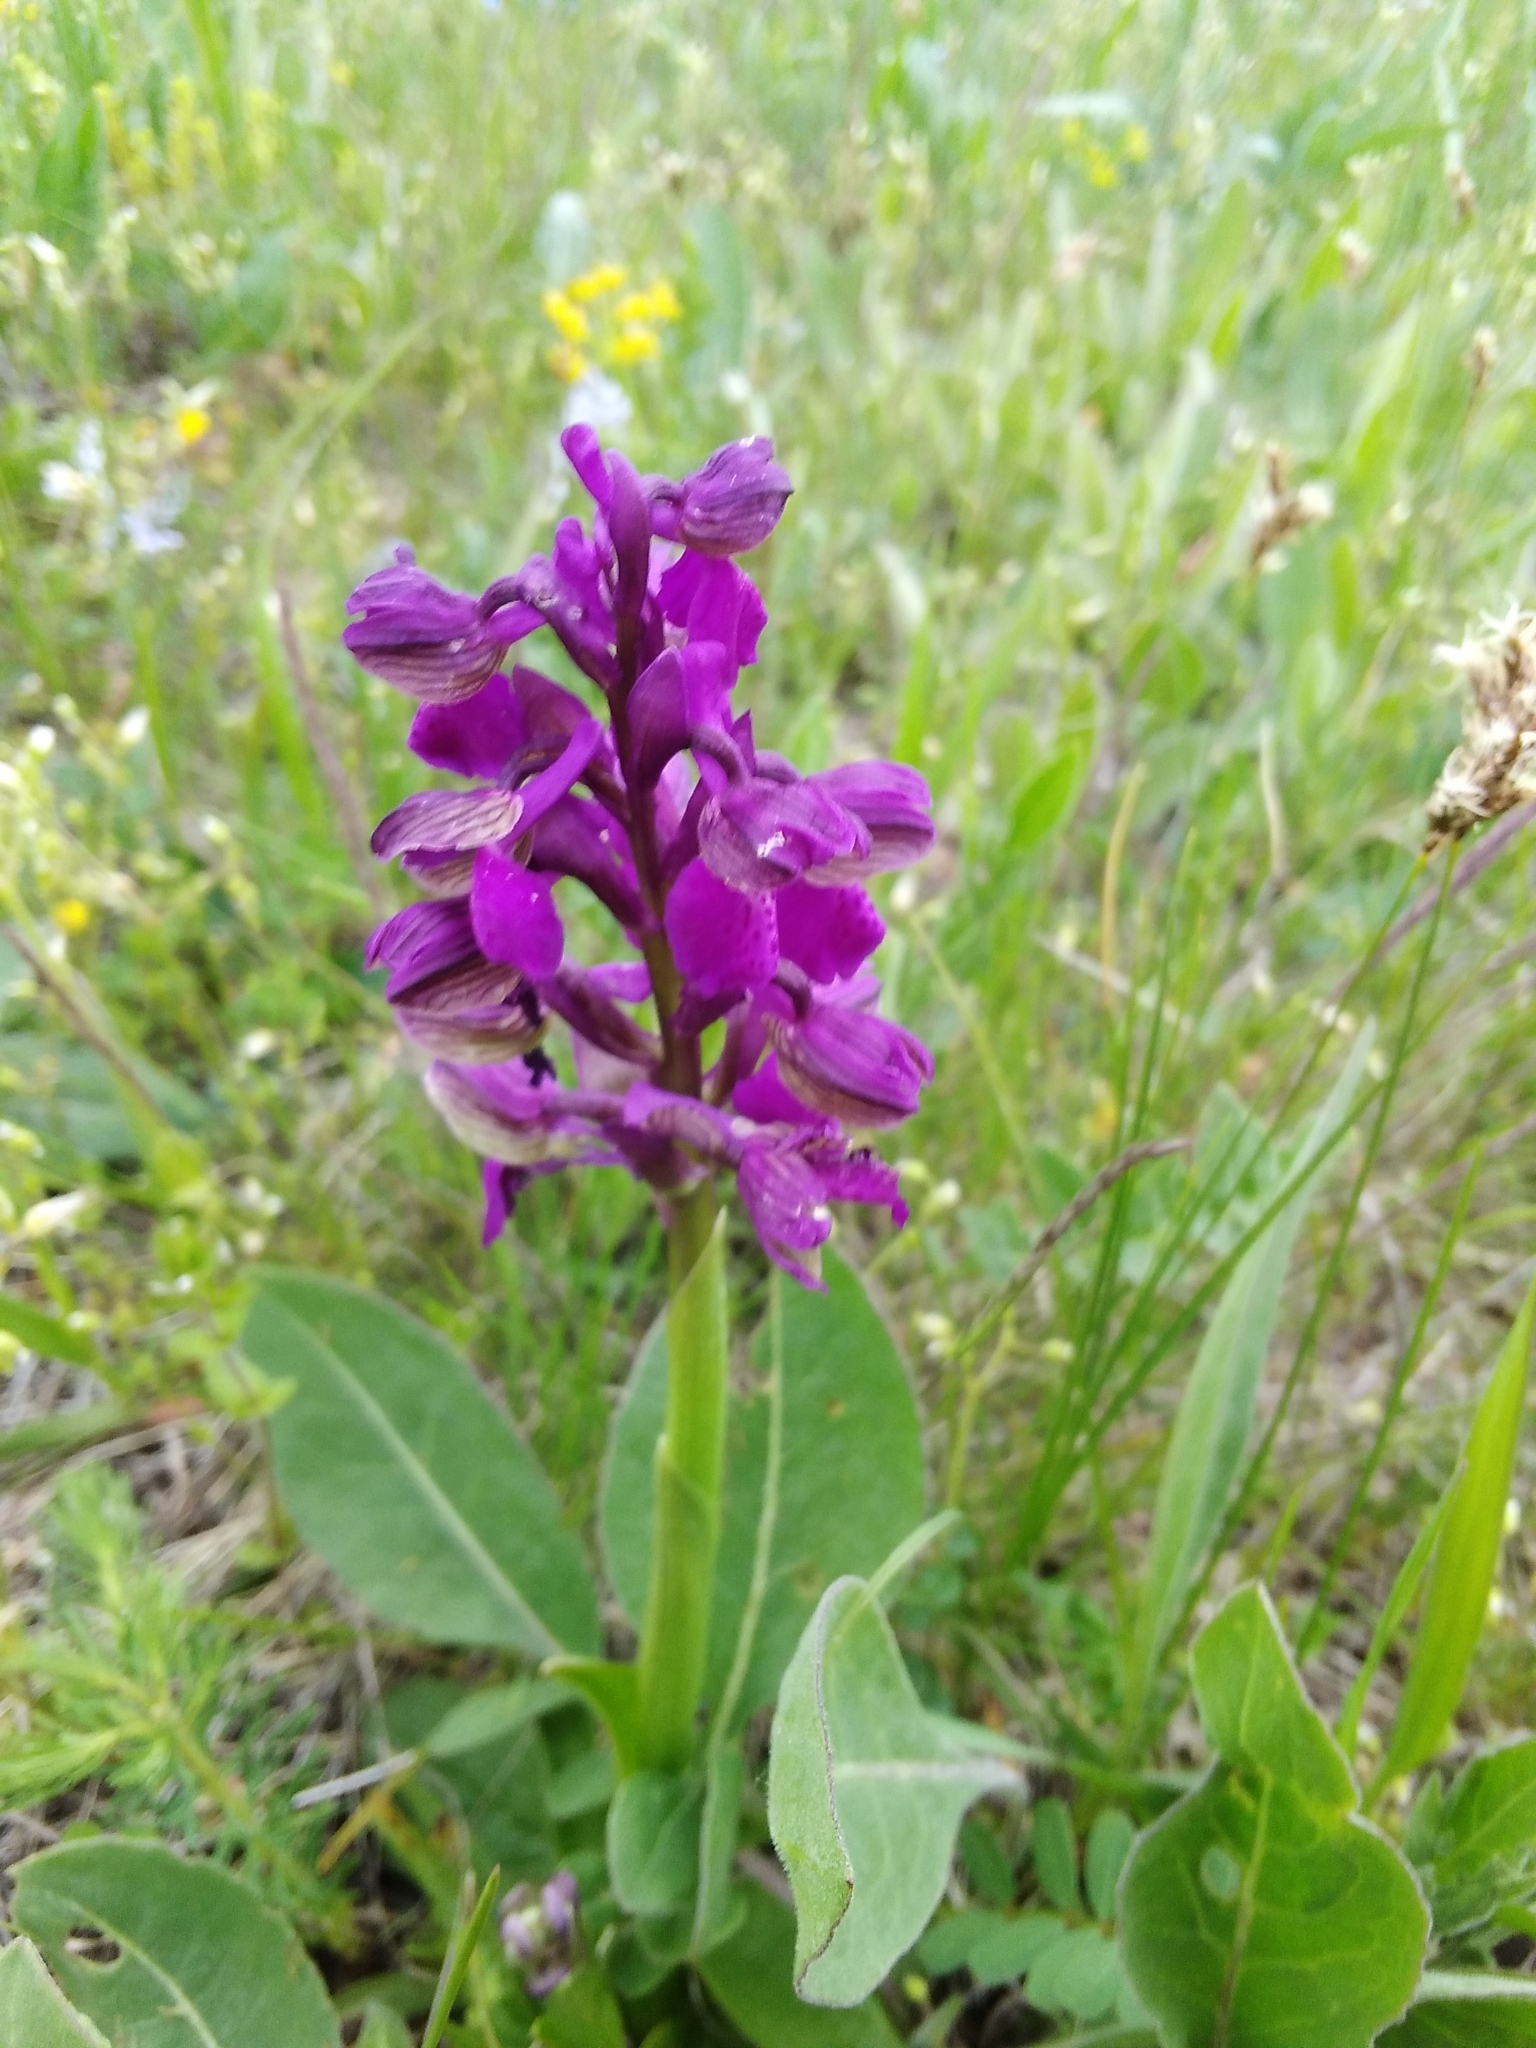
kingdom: Plantae
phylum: Tracheophyta
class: Liliopsida
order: Asparagales
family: Orchidaceae
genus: Anacamptis
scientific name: Anacamptis morio
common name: Green-winged orchid
